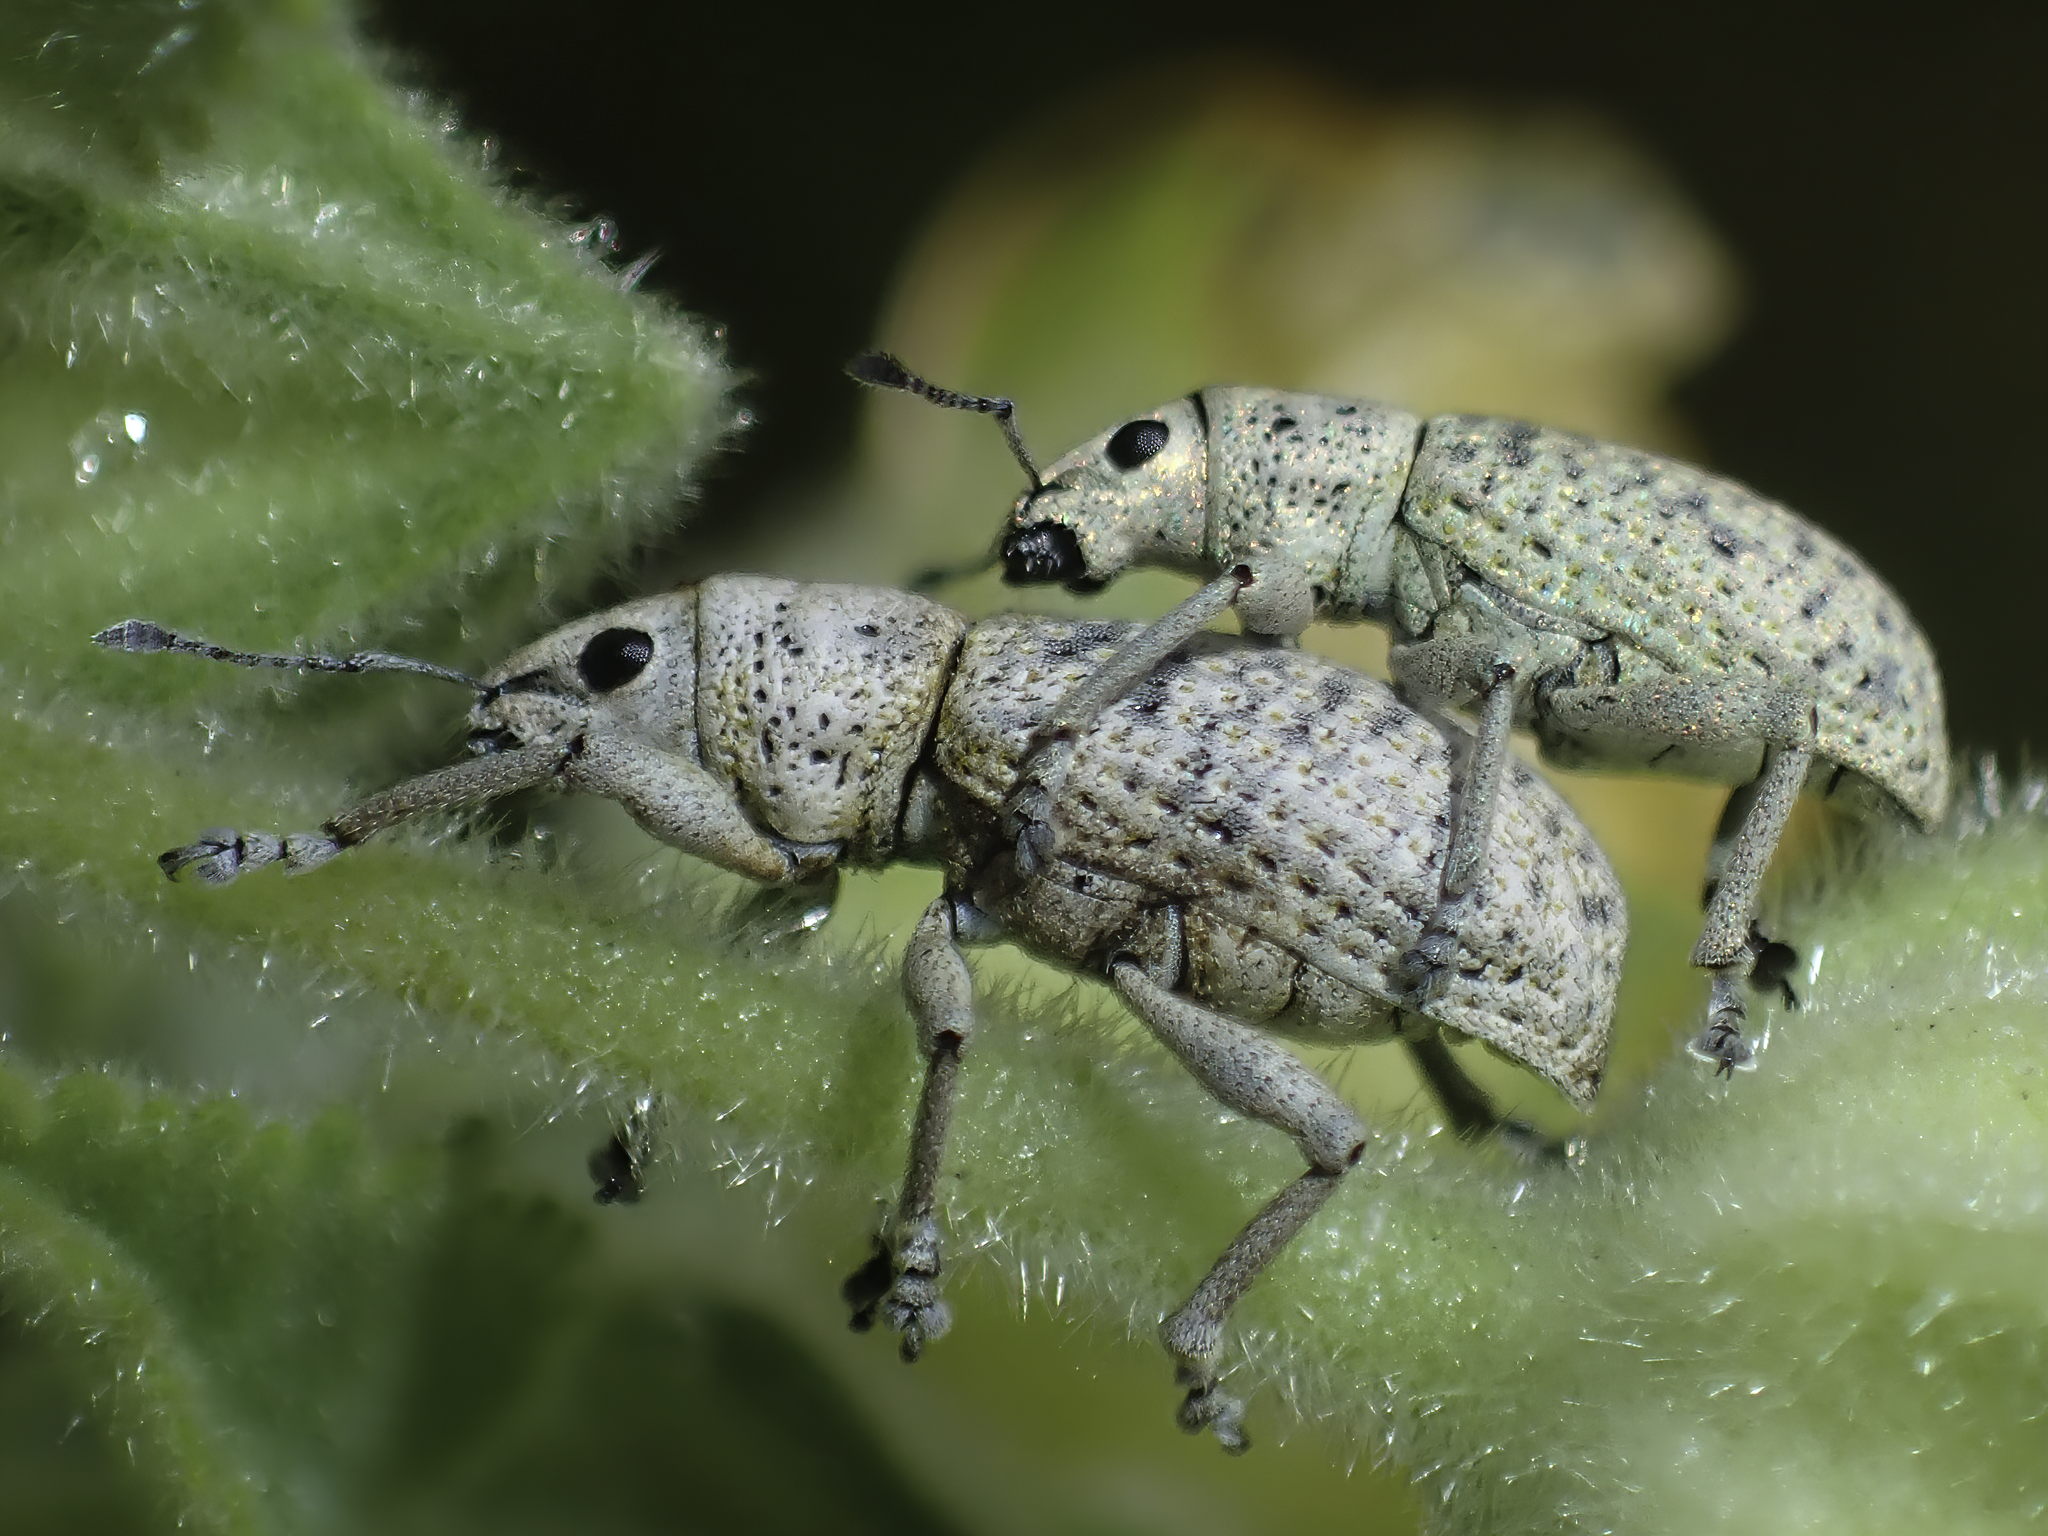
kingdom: Animalia
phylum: Arthropoda
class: Insecta
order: Coleoptera
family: Curculionidae
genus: Artipus
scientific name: Artipus floridanus
